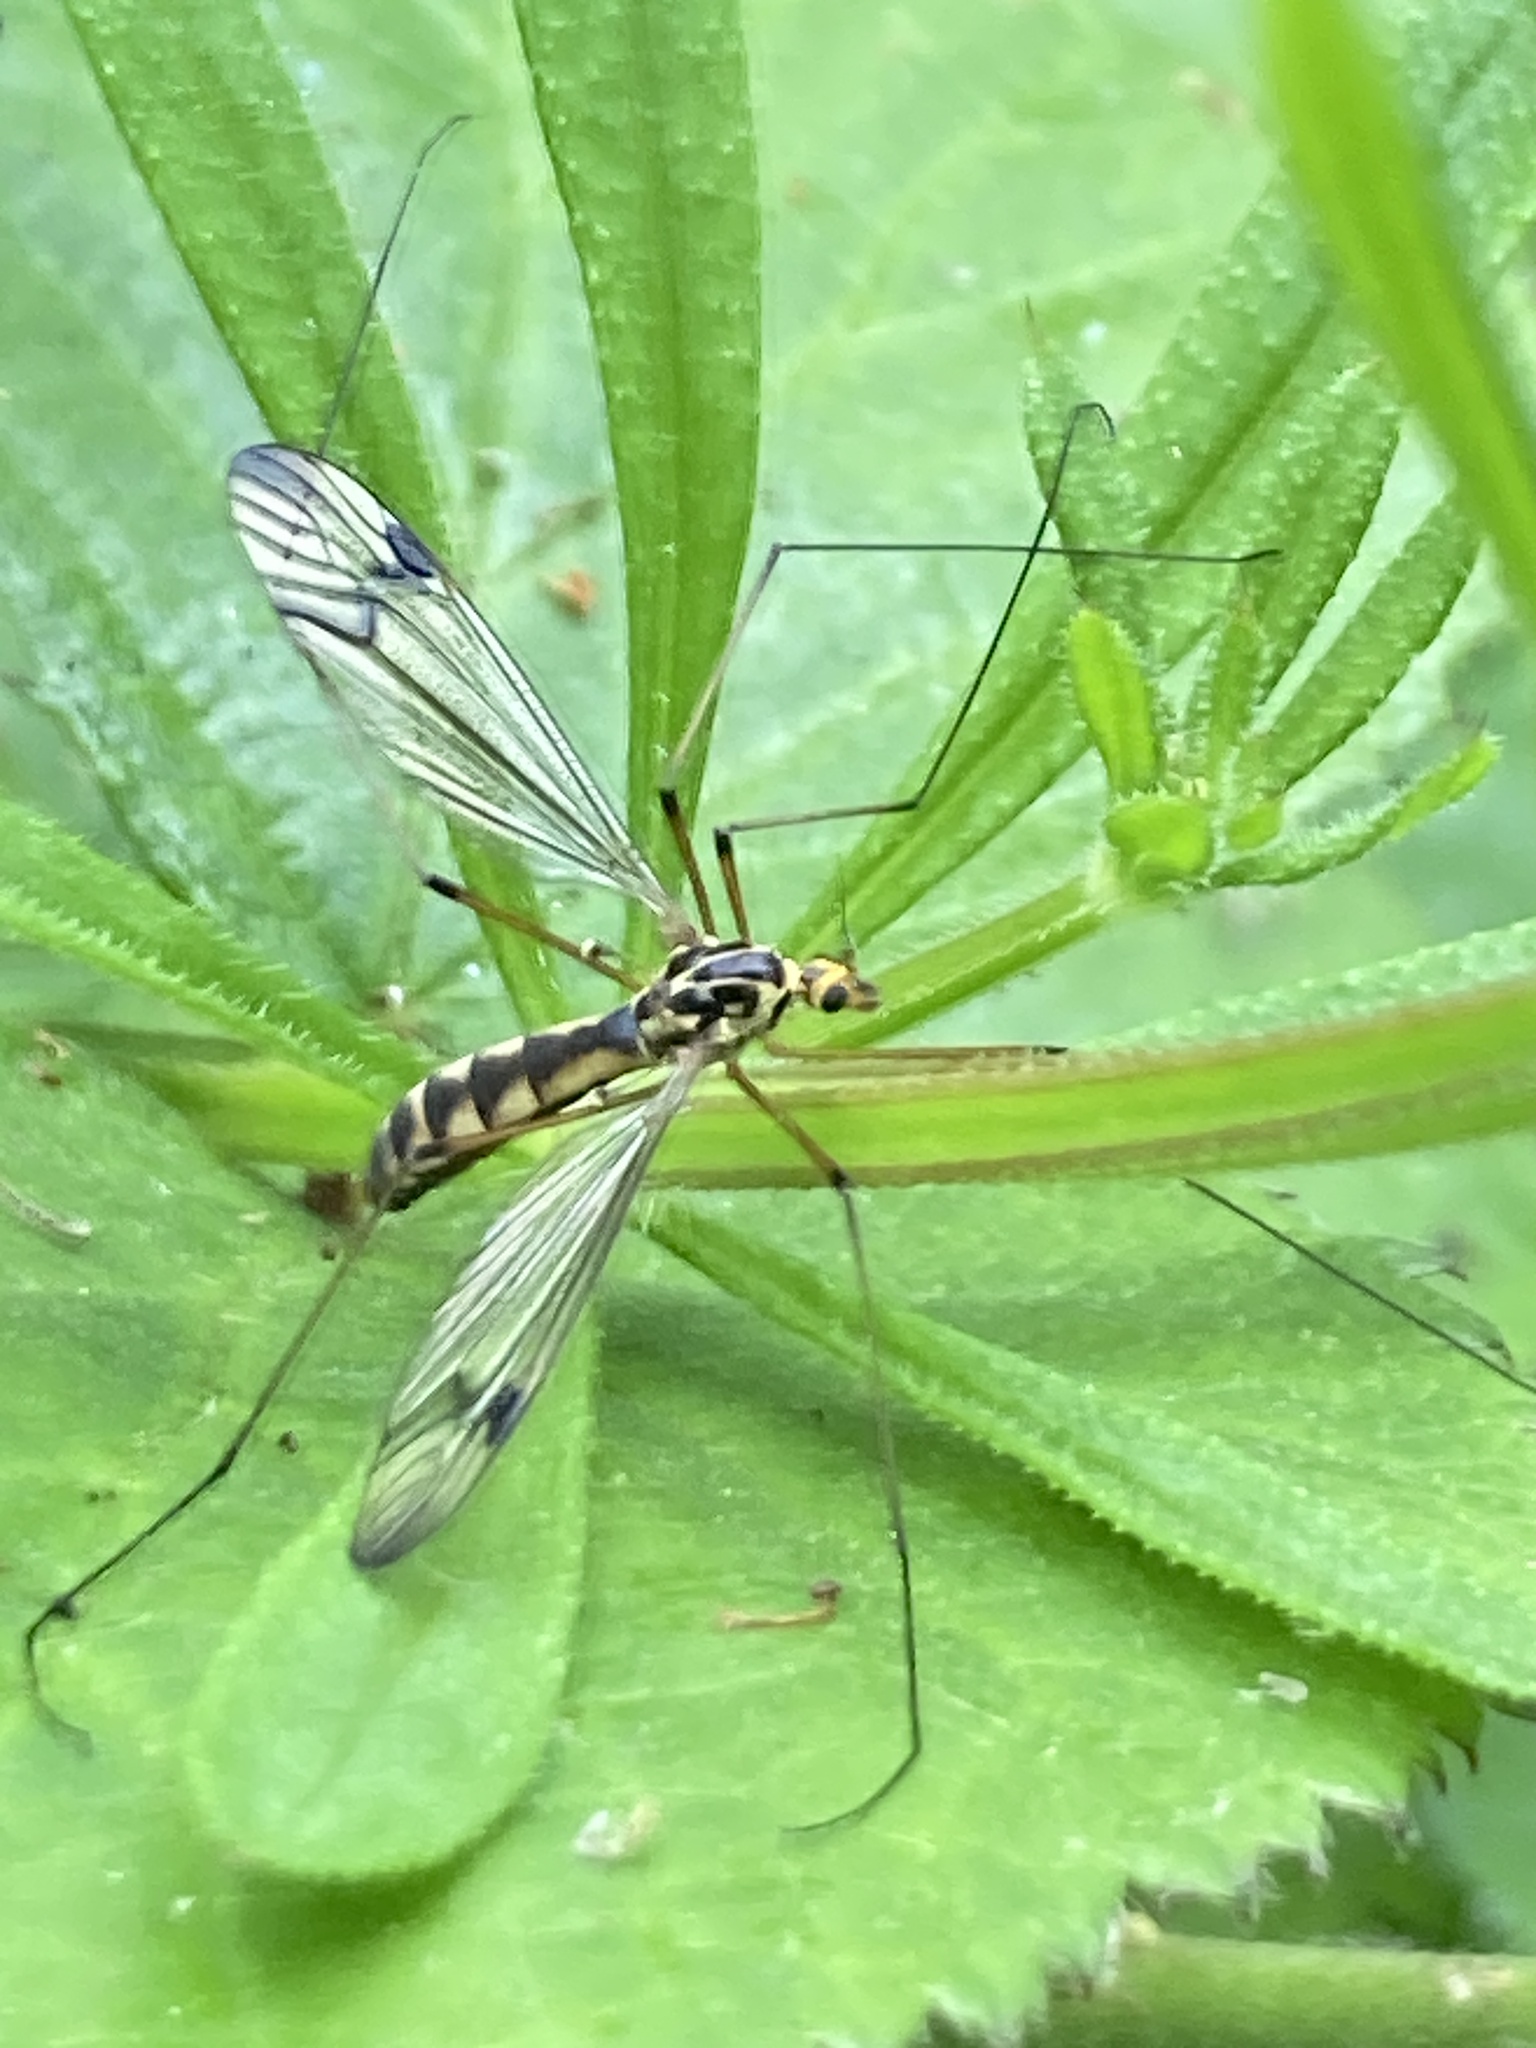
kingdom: Animalia
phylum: Arthropoda
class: Insecta
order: Diptera
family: Tipulidae
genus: Nephrotoma
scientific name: Nephrotoma quadrifaria
